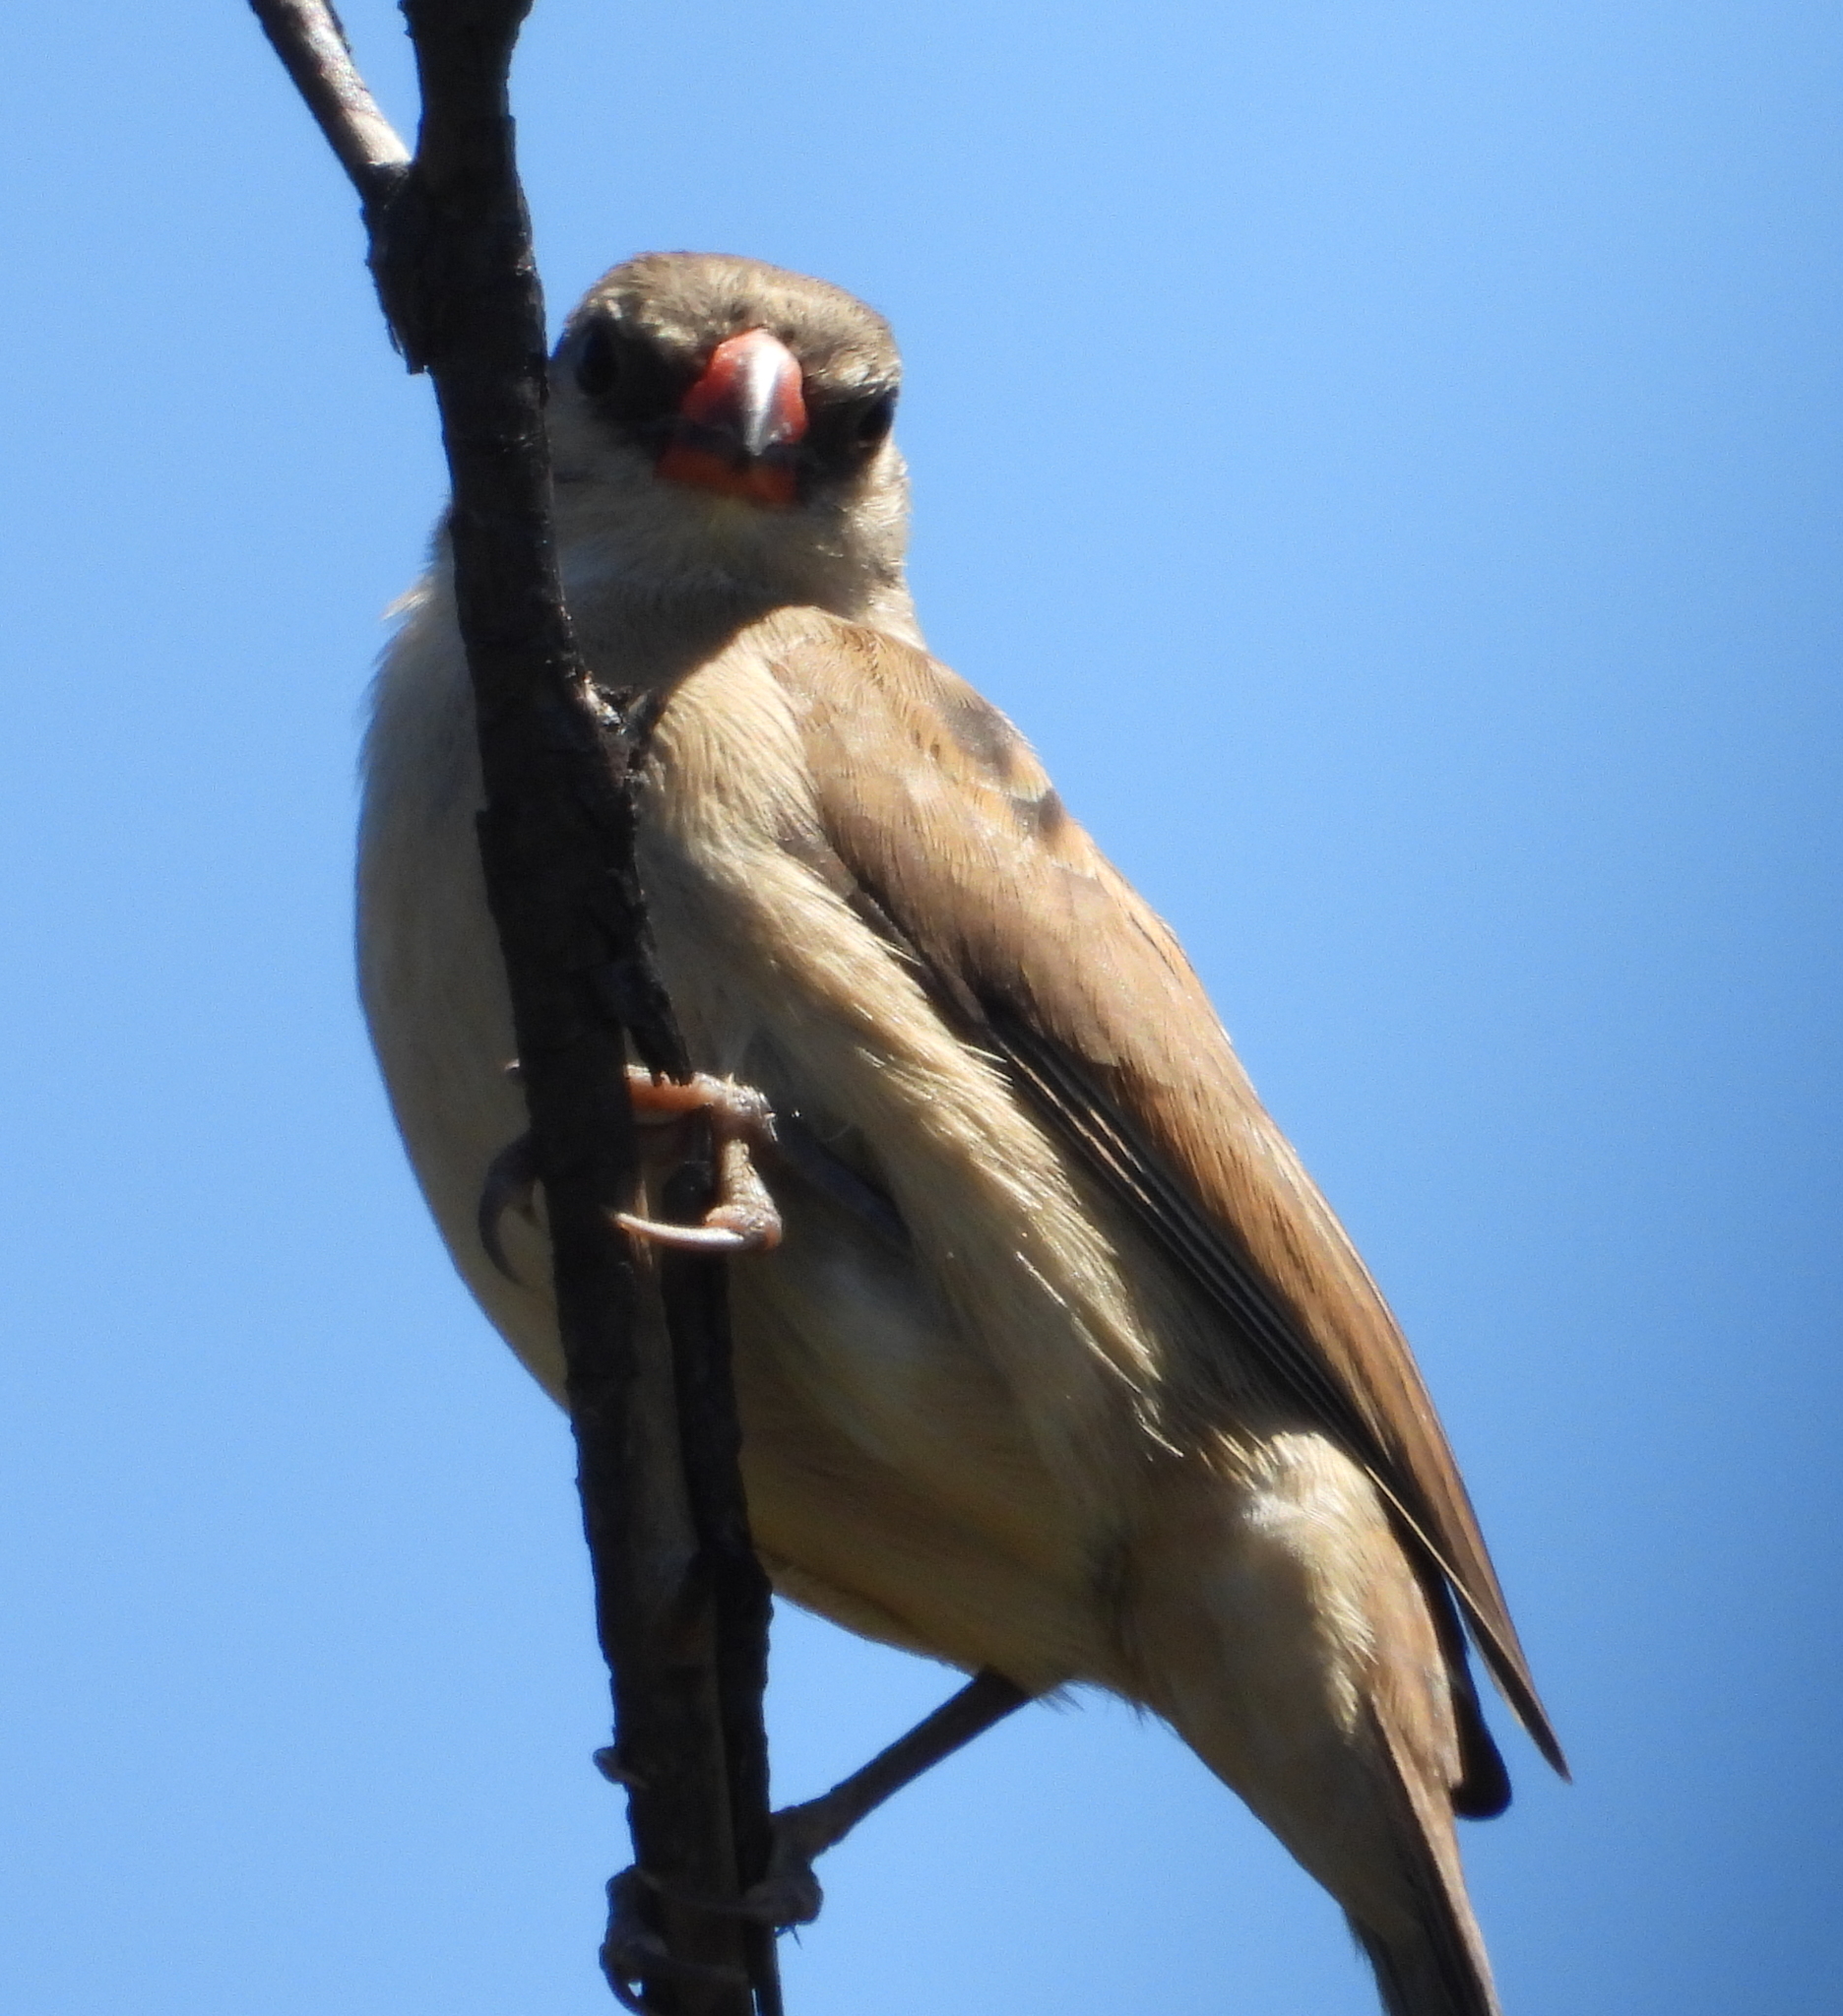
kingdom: Animalia
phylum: Chordata
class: Aves
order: Passeriformes
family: Viduidae
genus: Vidua
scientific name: Vidua macroura
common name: Pin-tailed whydah
